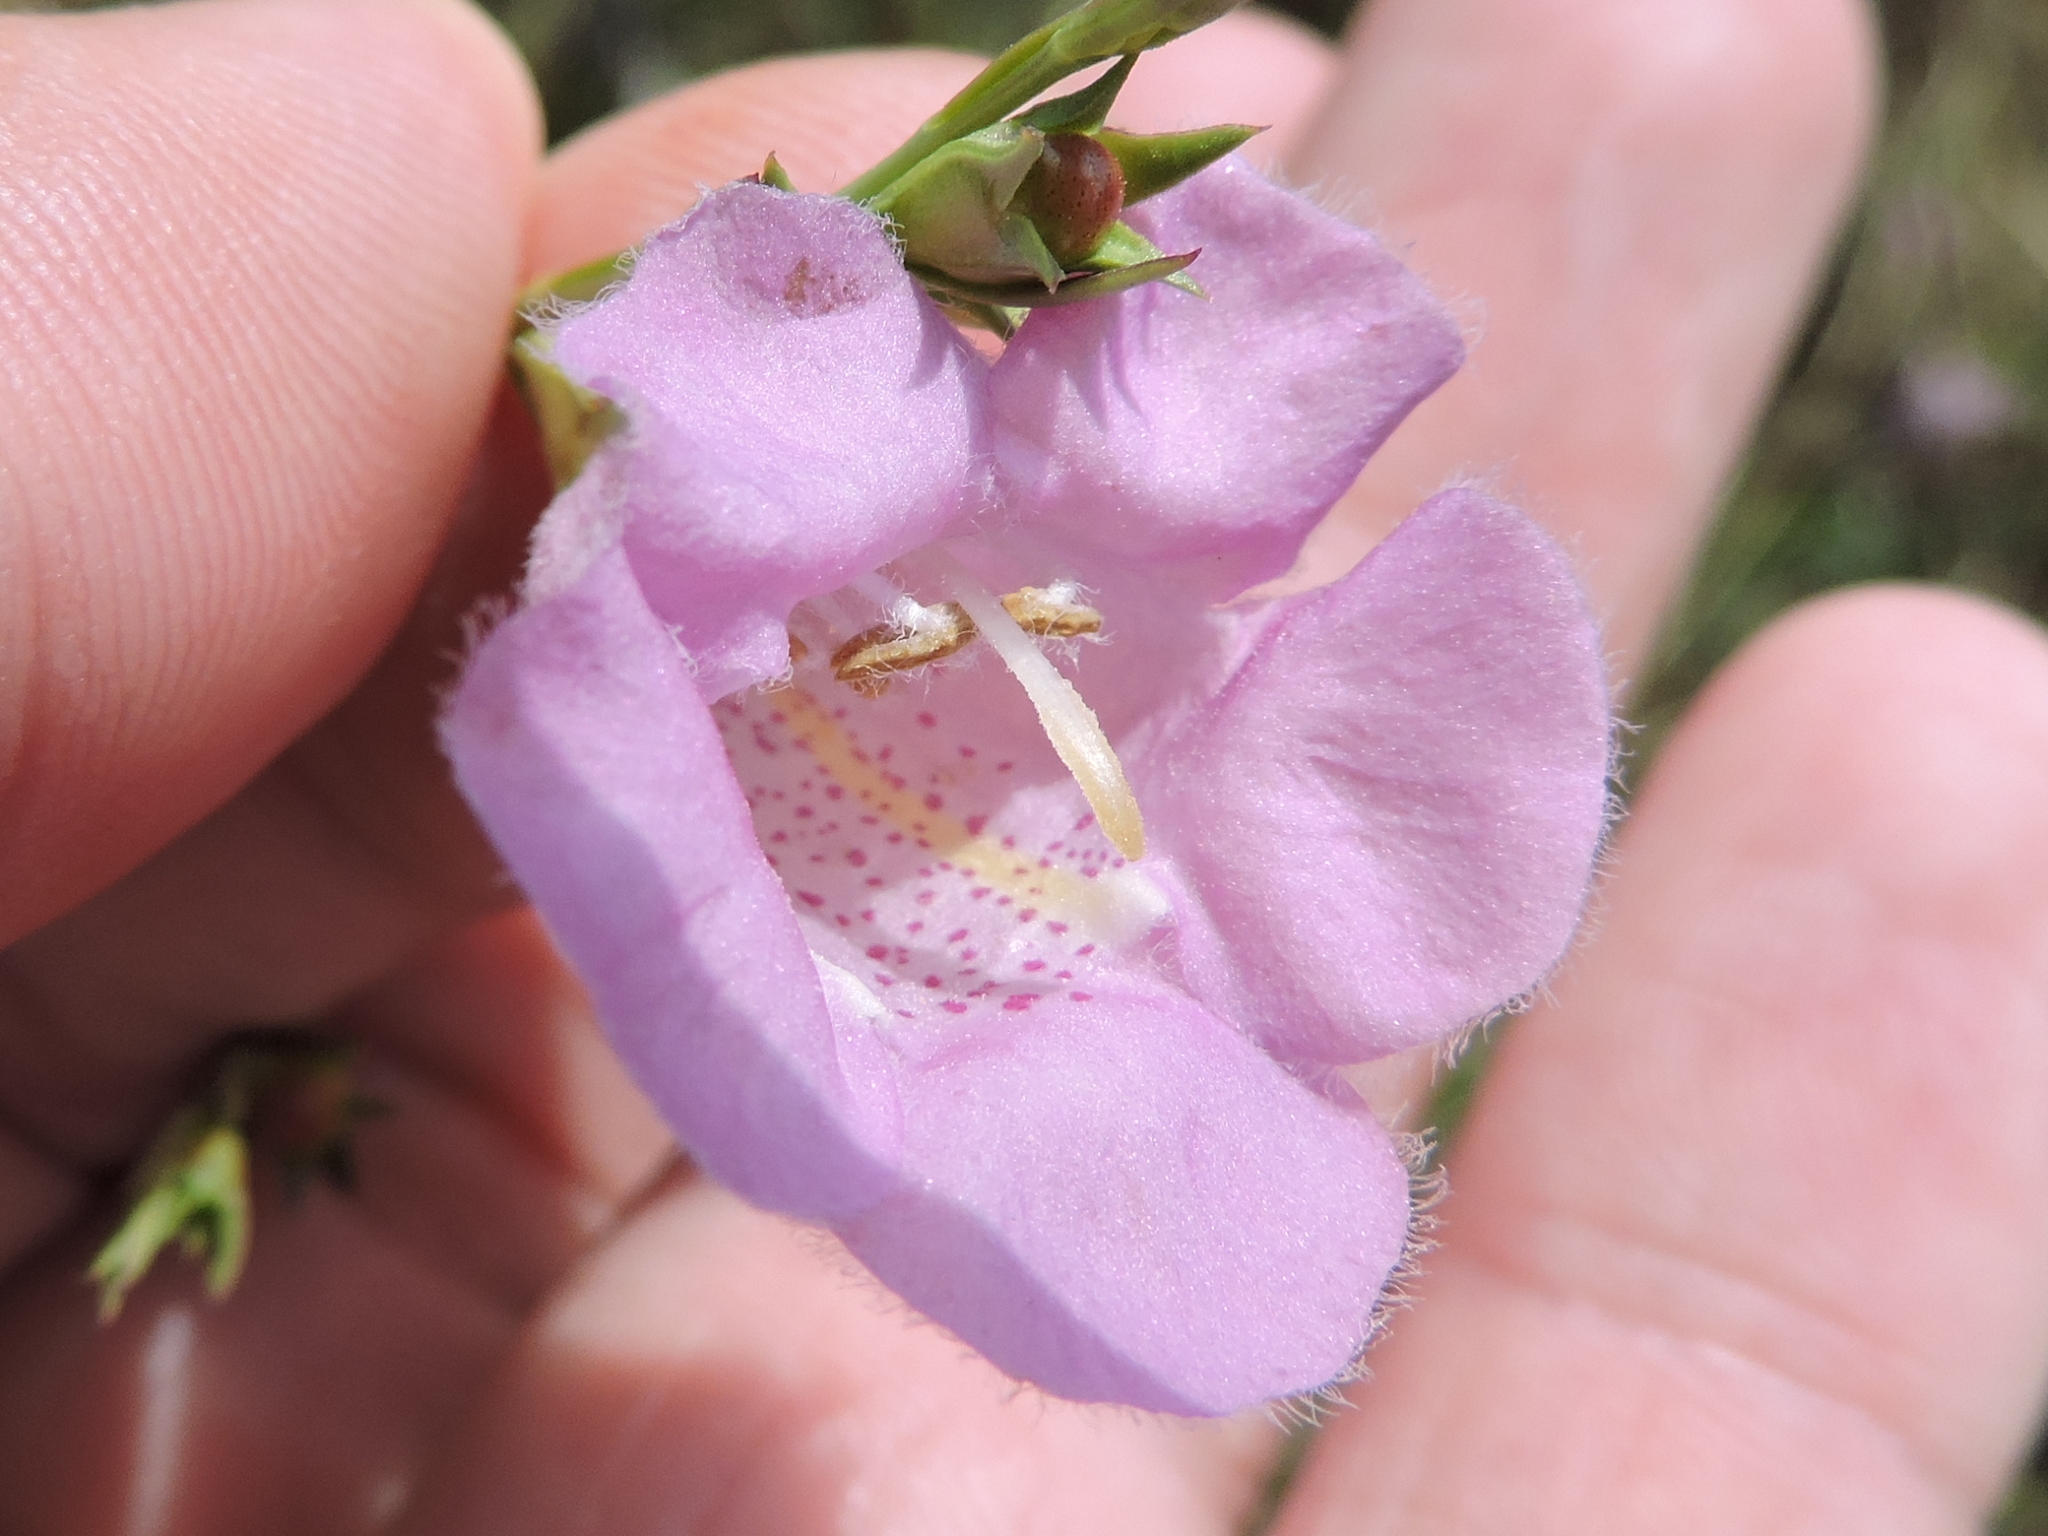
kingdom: Plantae
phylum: Tracheophyta
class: Magnoliopsida
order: Lamiales
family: Orobanchaceae
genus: Agalinis
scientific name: Agalinis heterophylla
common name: Prairie agalinis
